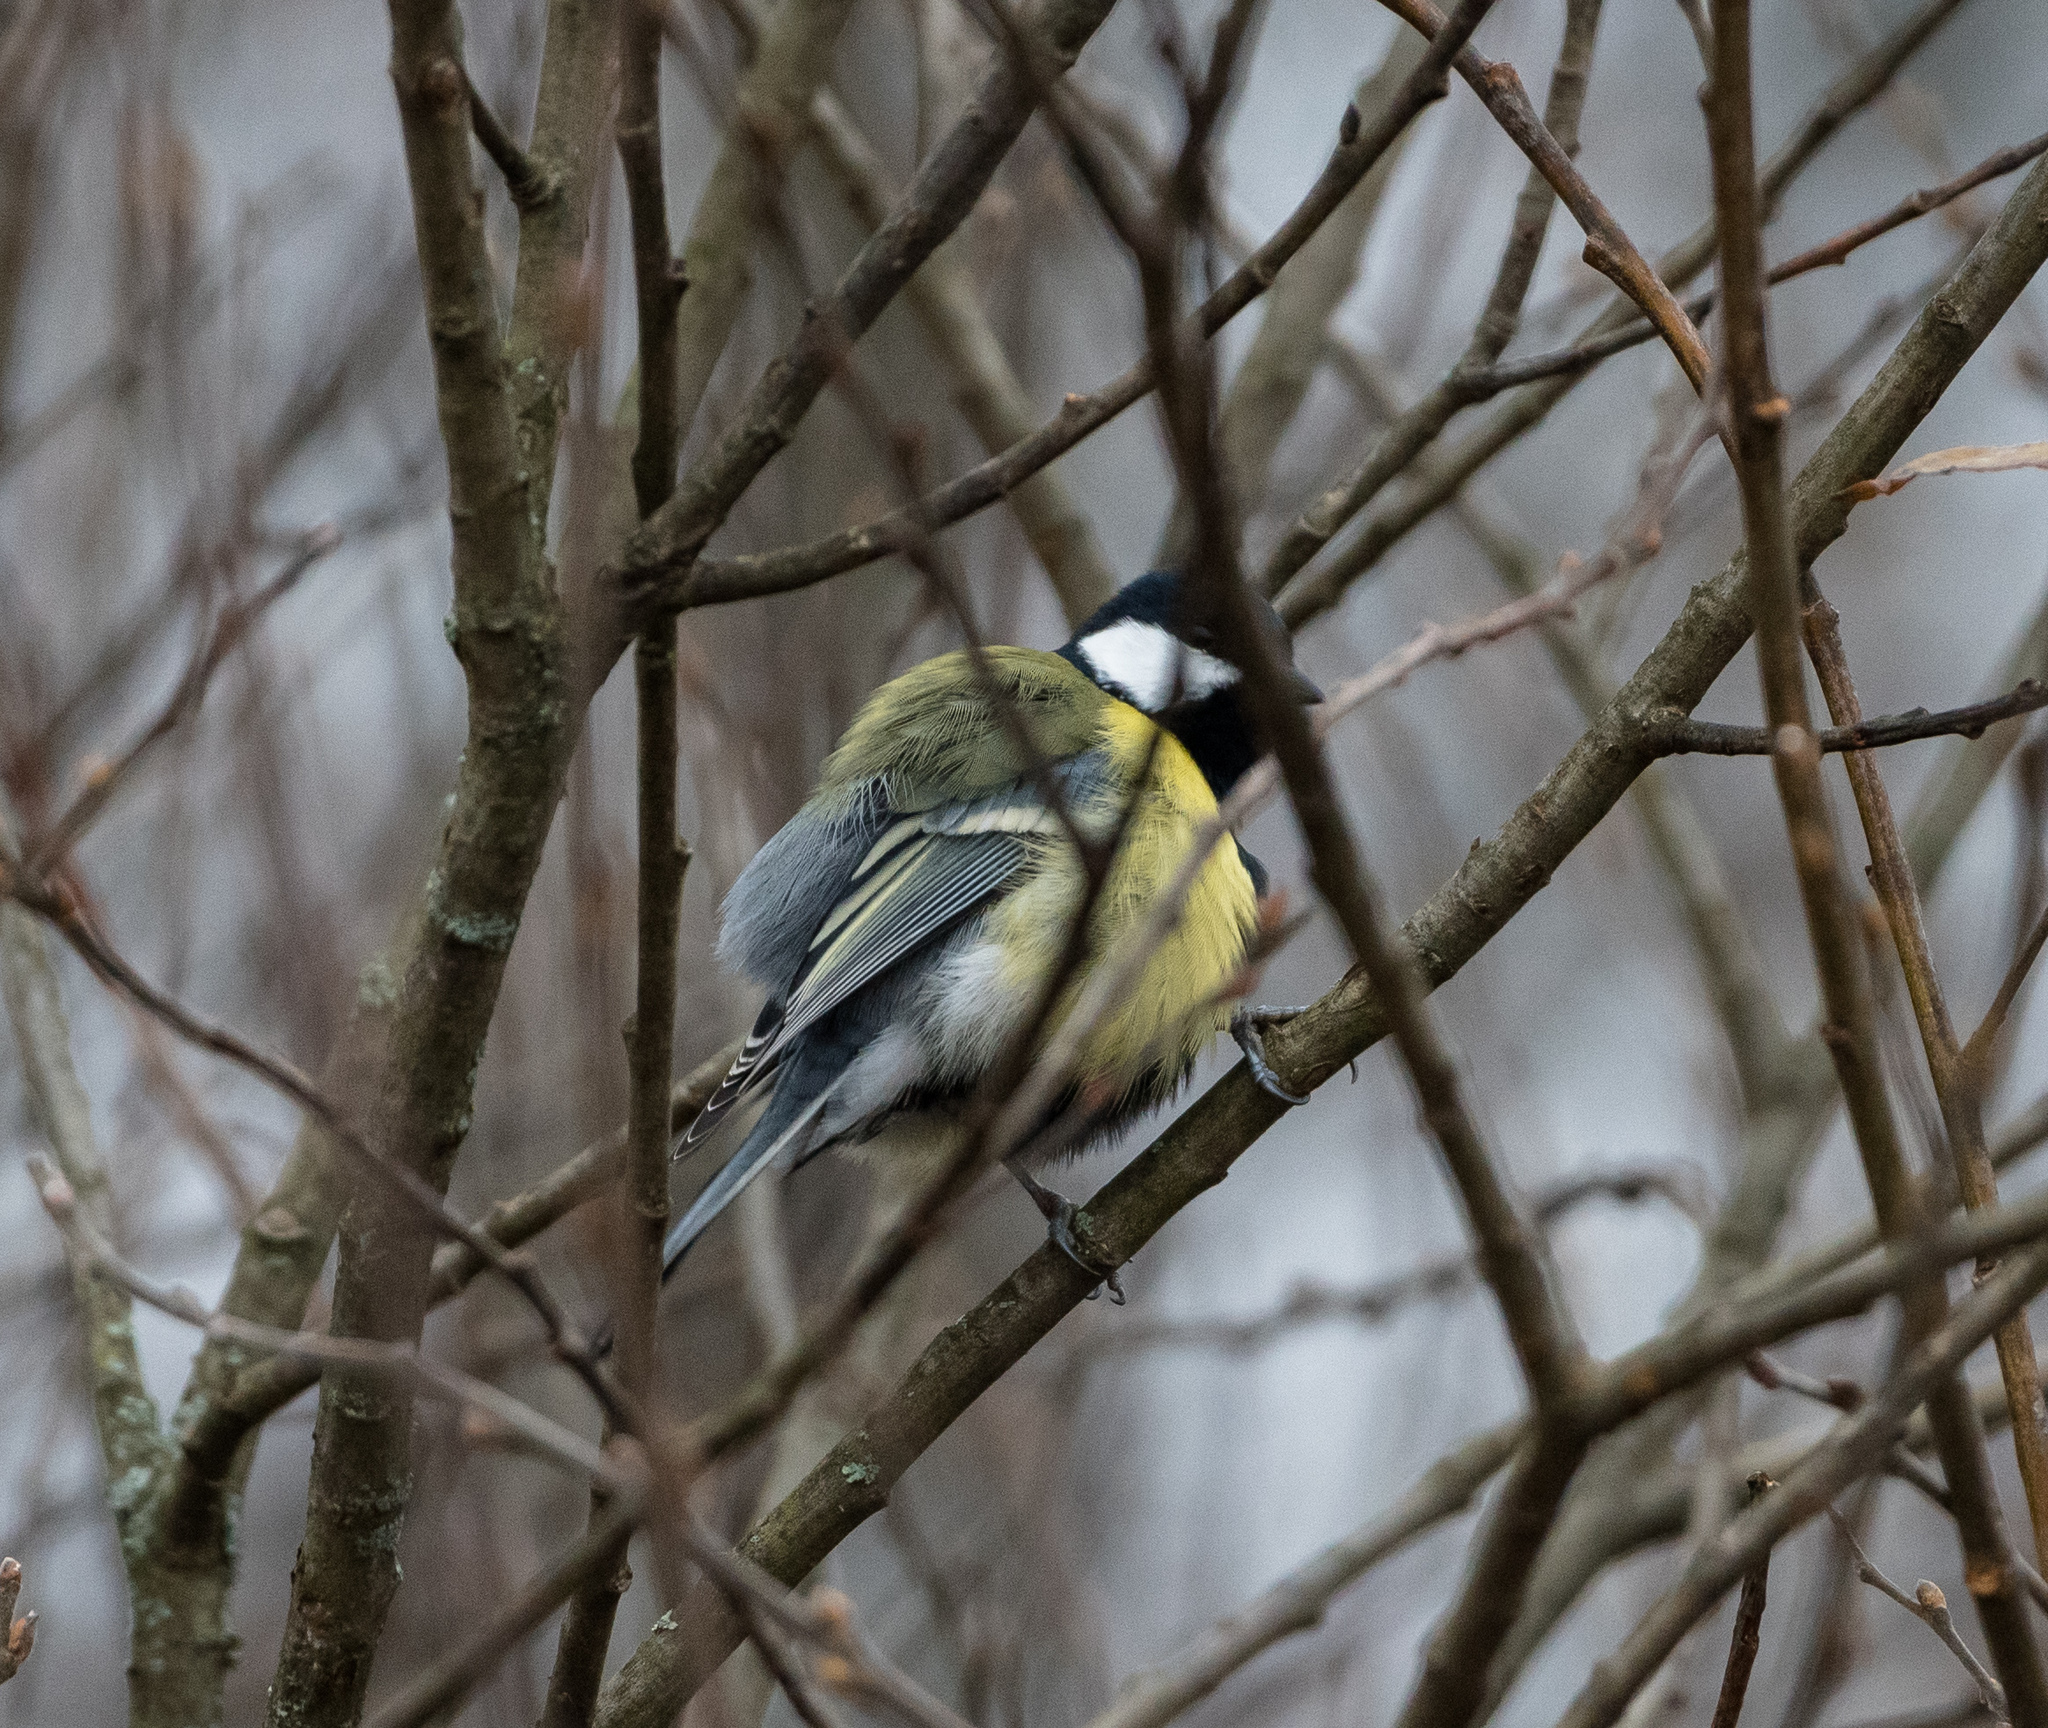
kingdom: Animalia
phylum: Chordata
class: Aves
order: Passeriformes
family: Paridae
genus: Parus
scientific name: Parus major
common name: Great tit
